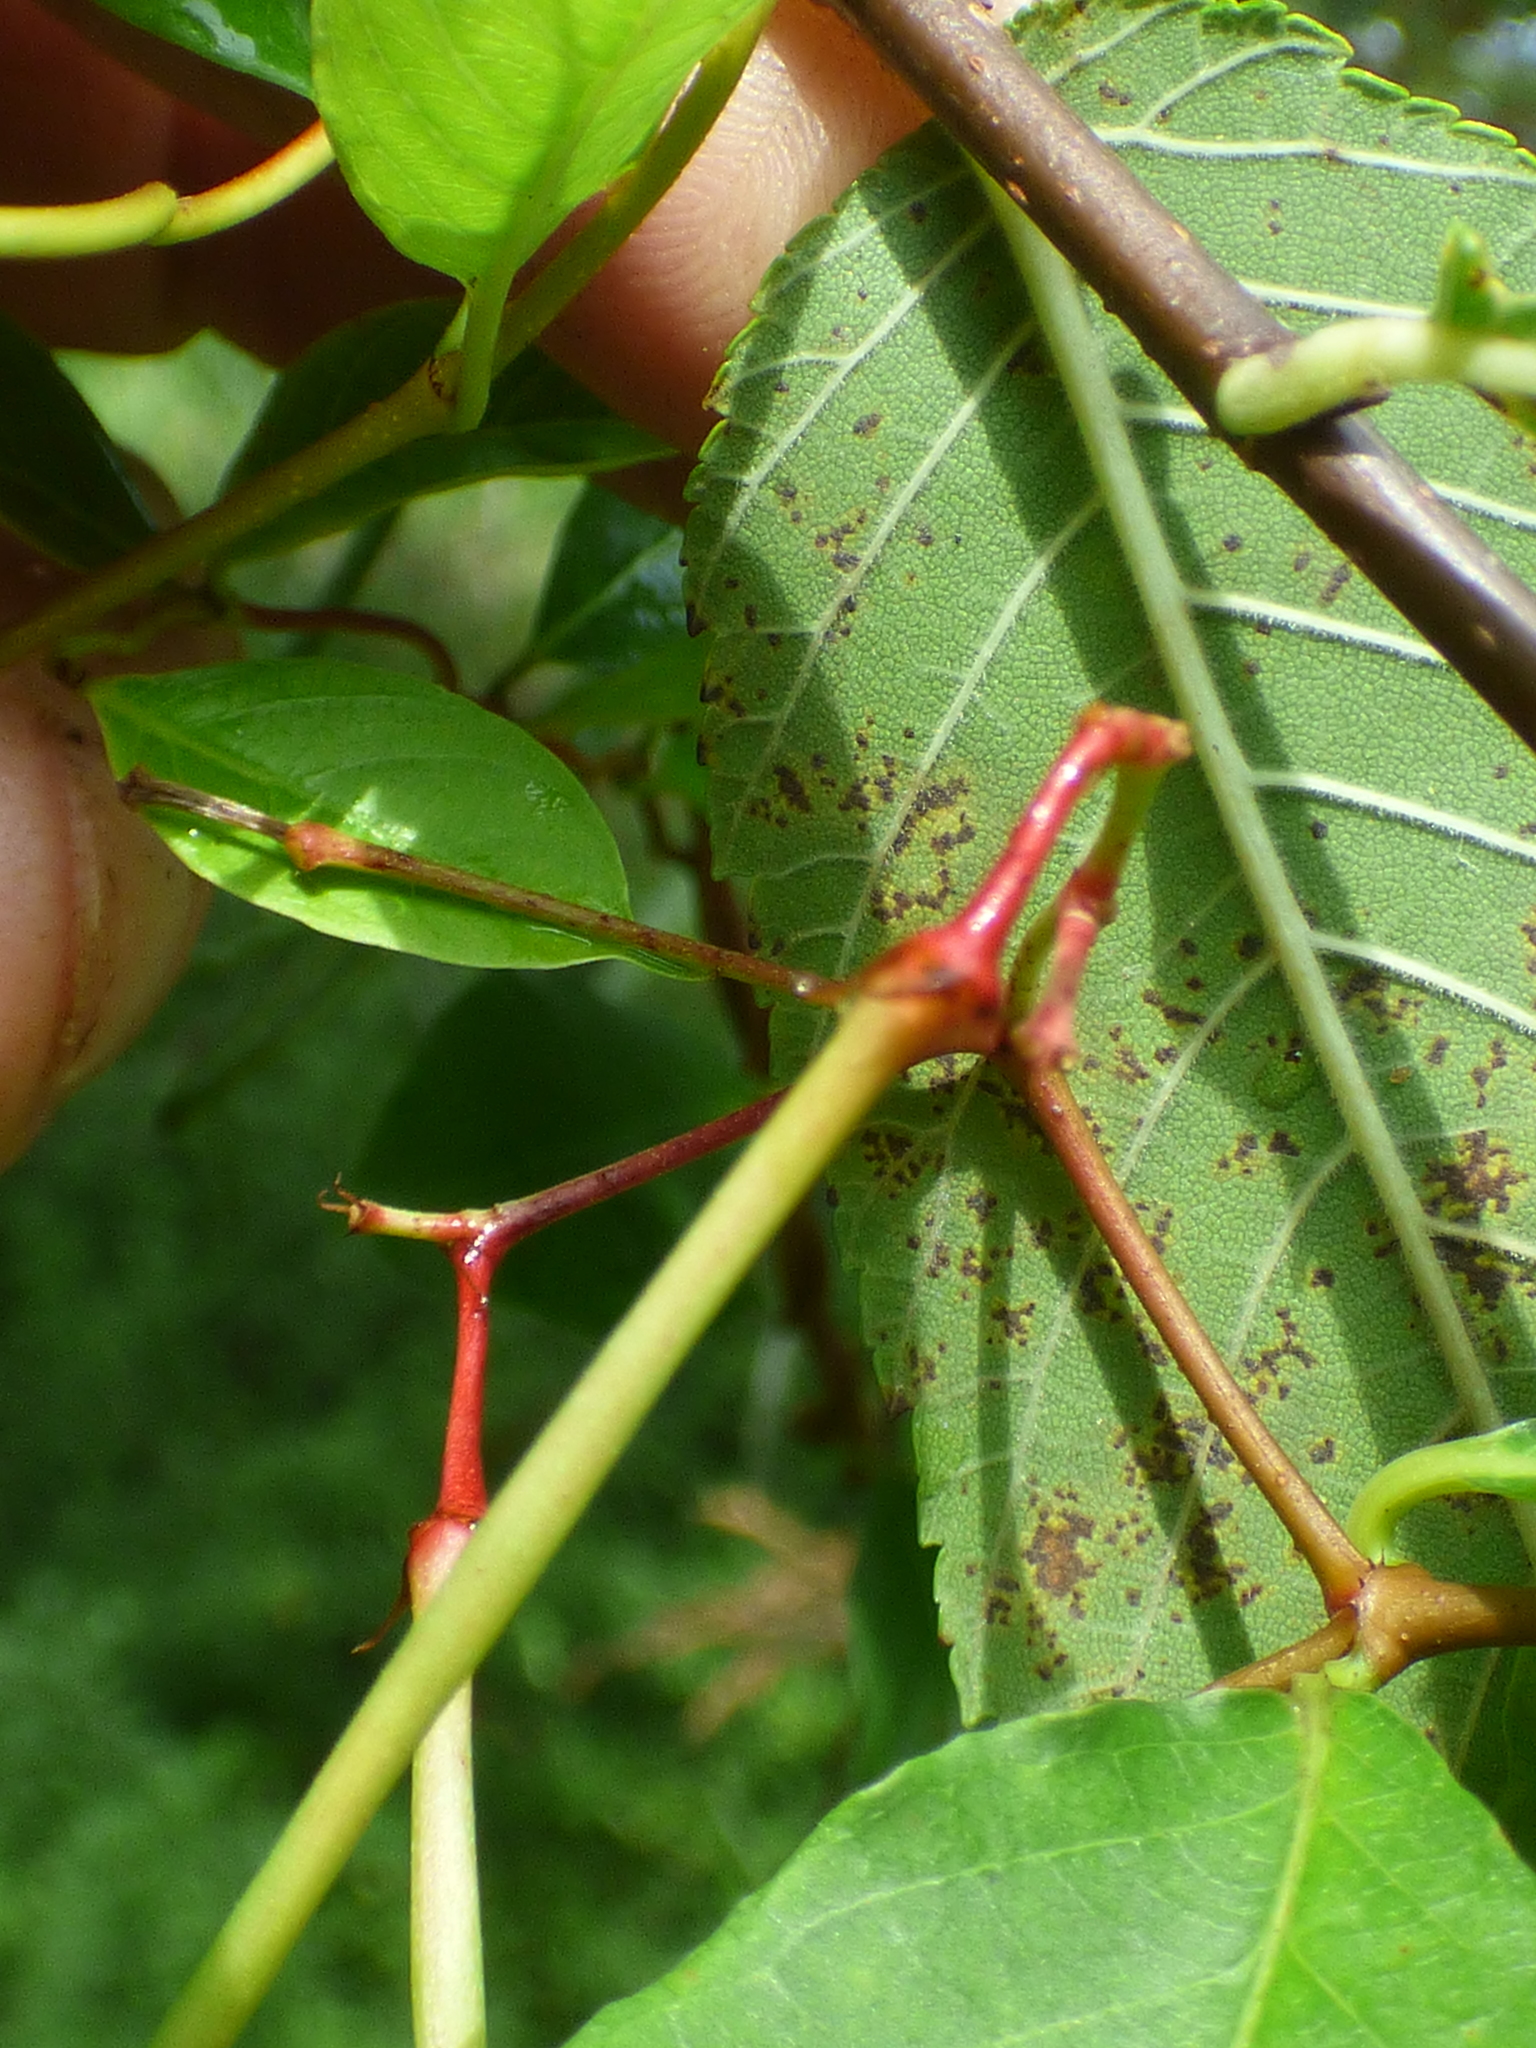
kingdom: Plantae
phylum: Tracheophyta
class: Magnoliopsida
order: Gentianales
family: Apocynaceae
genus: Thyrsanthella
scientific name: Thyrsanthella difformis
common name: Climbing dogbane
